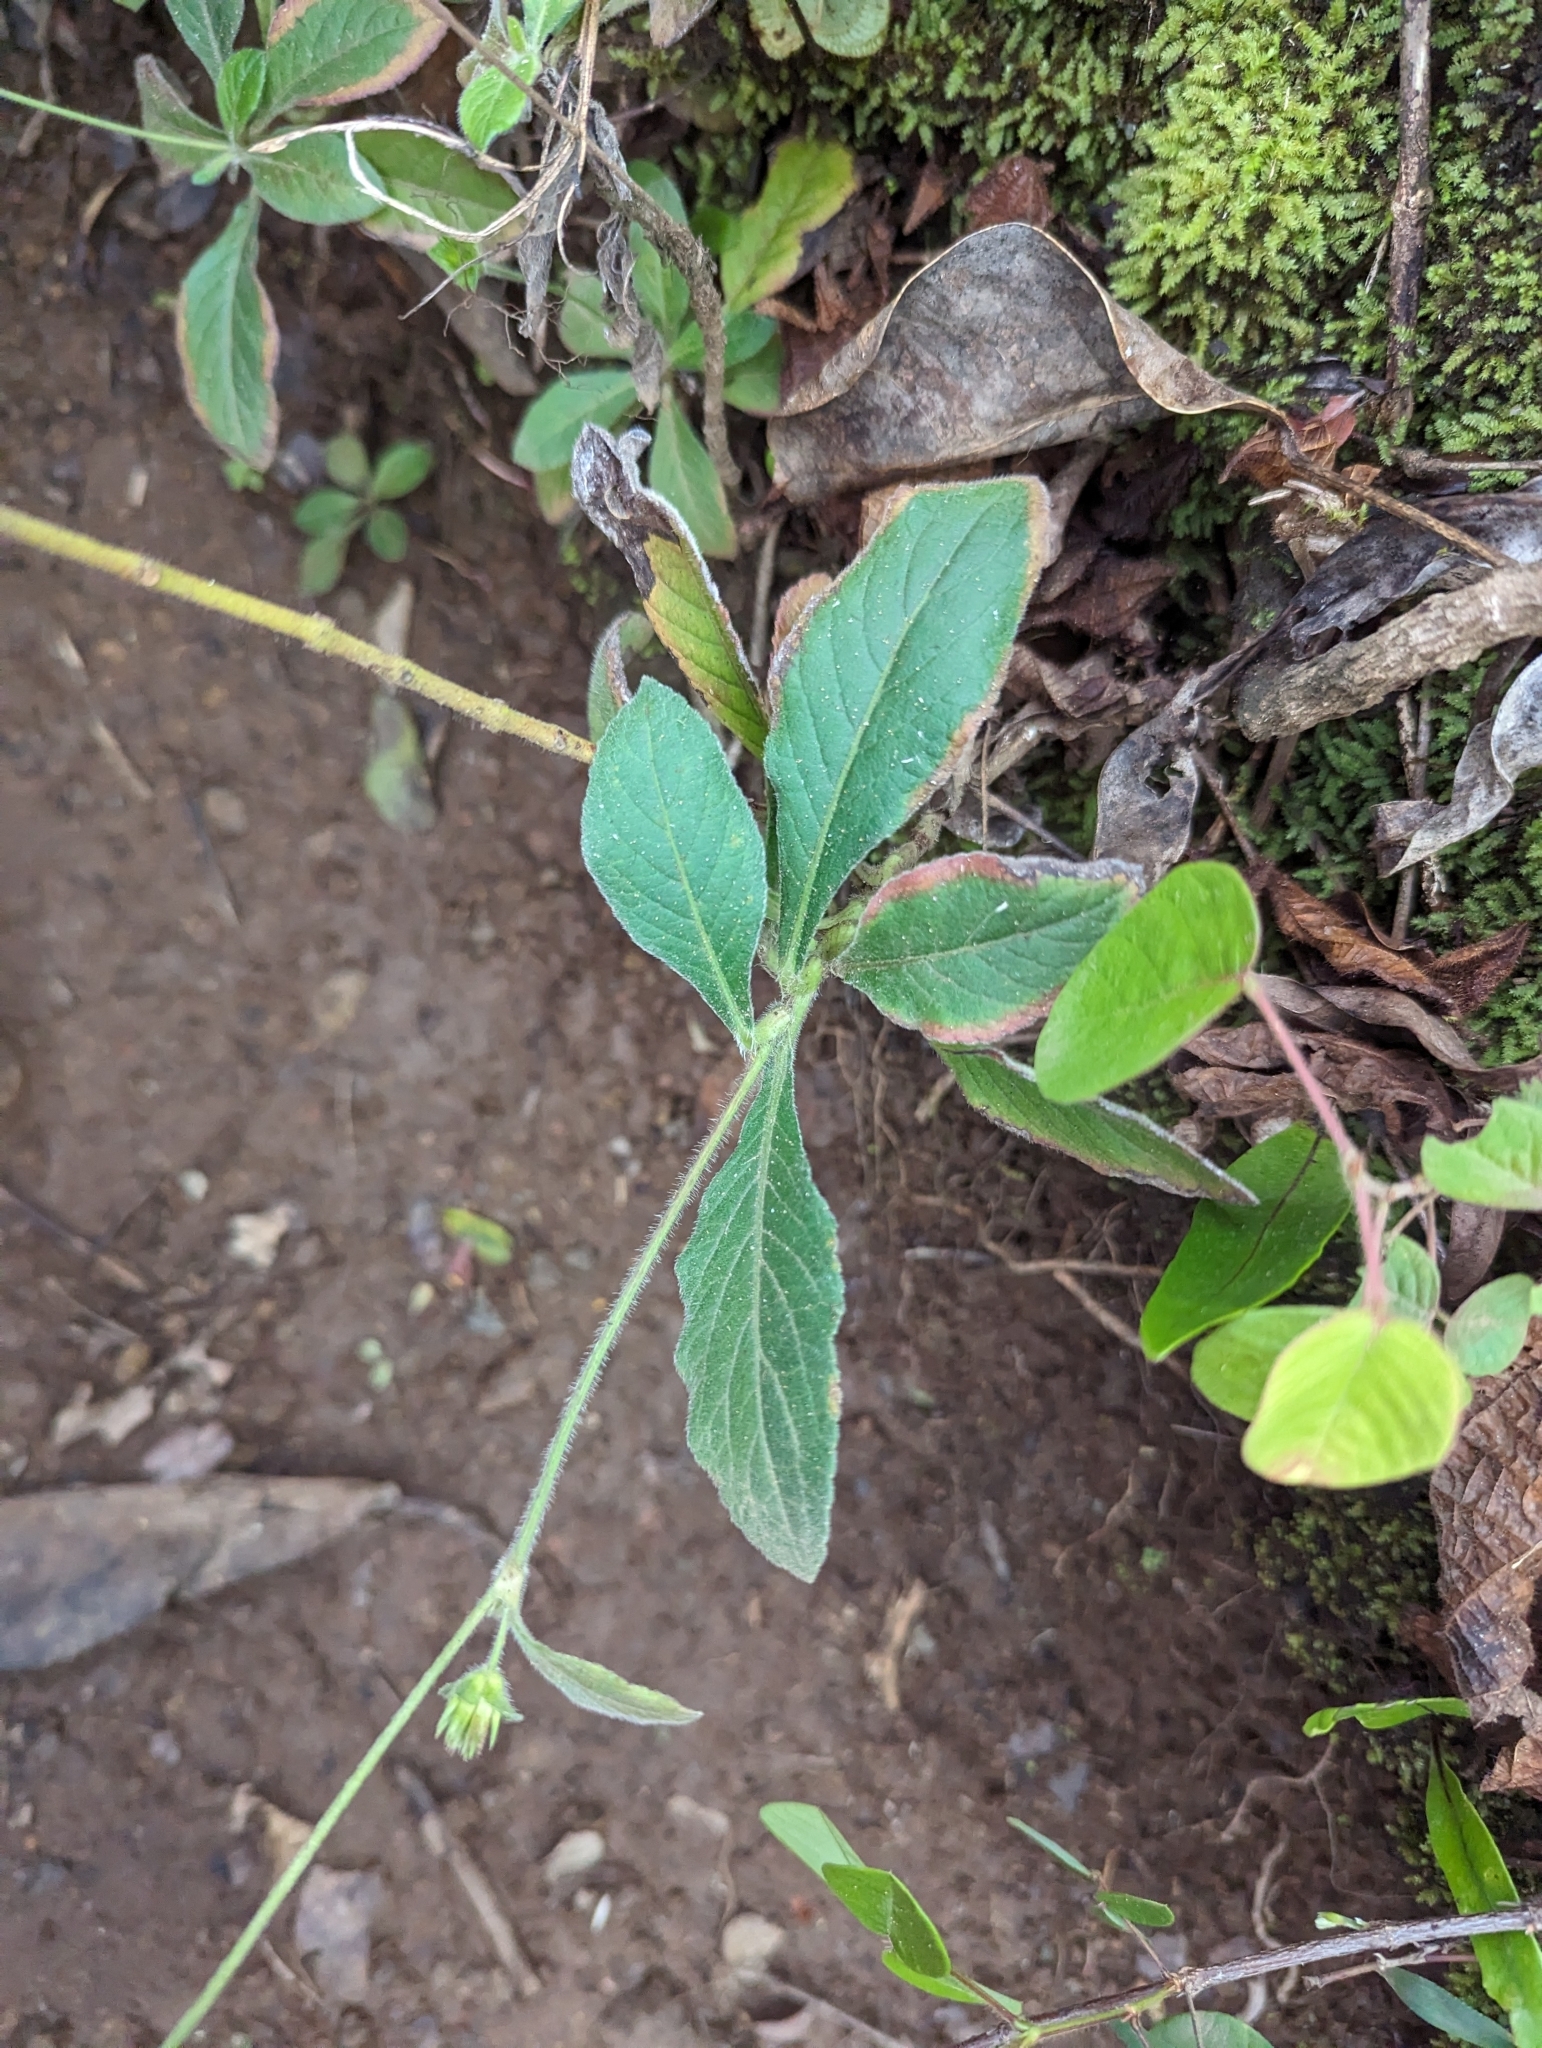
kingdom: Plantae
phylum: Tracheophyta
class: Magnoliopsida
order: Asterales
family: Asteraceae
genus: Elephantopus
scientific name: Elephantopus mollis
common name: Soft elephantsfoot
